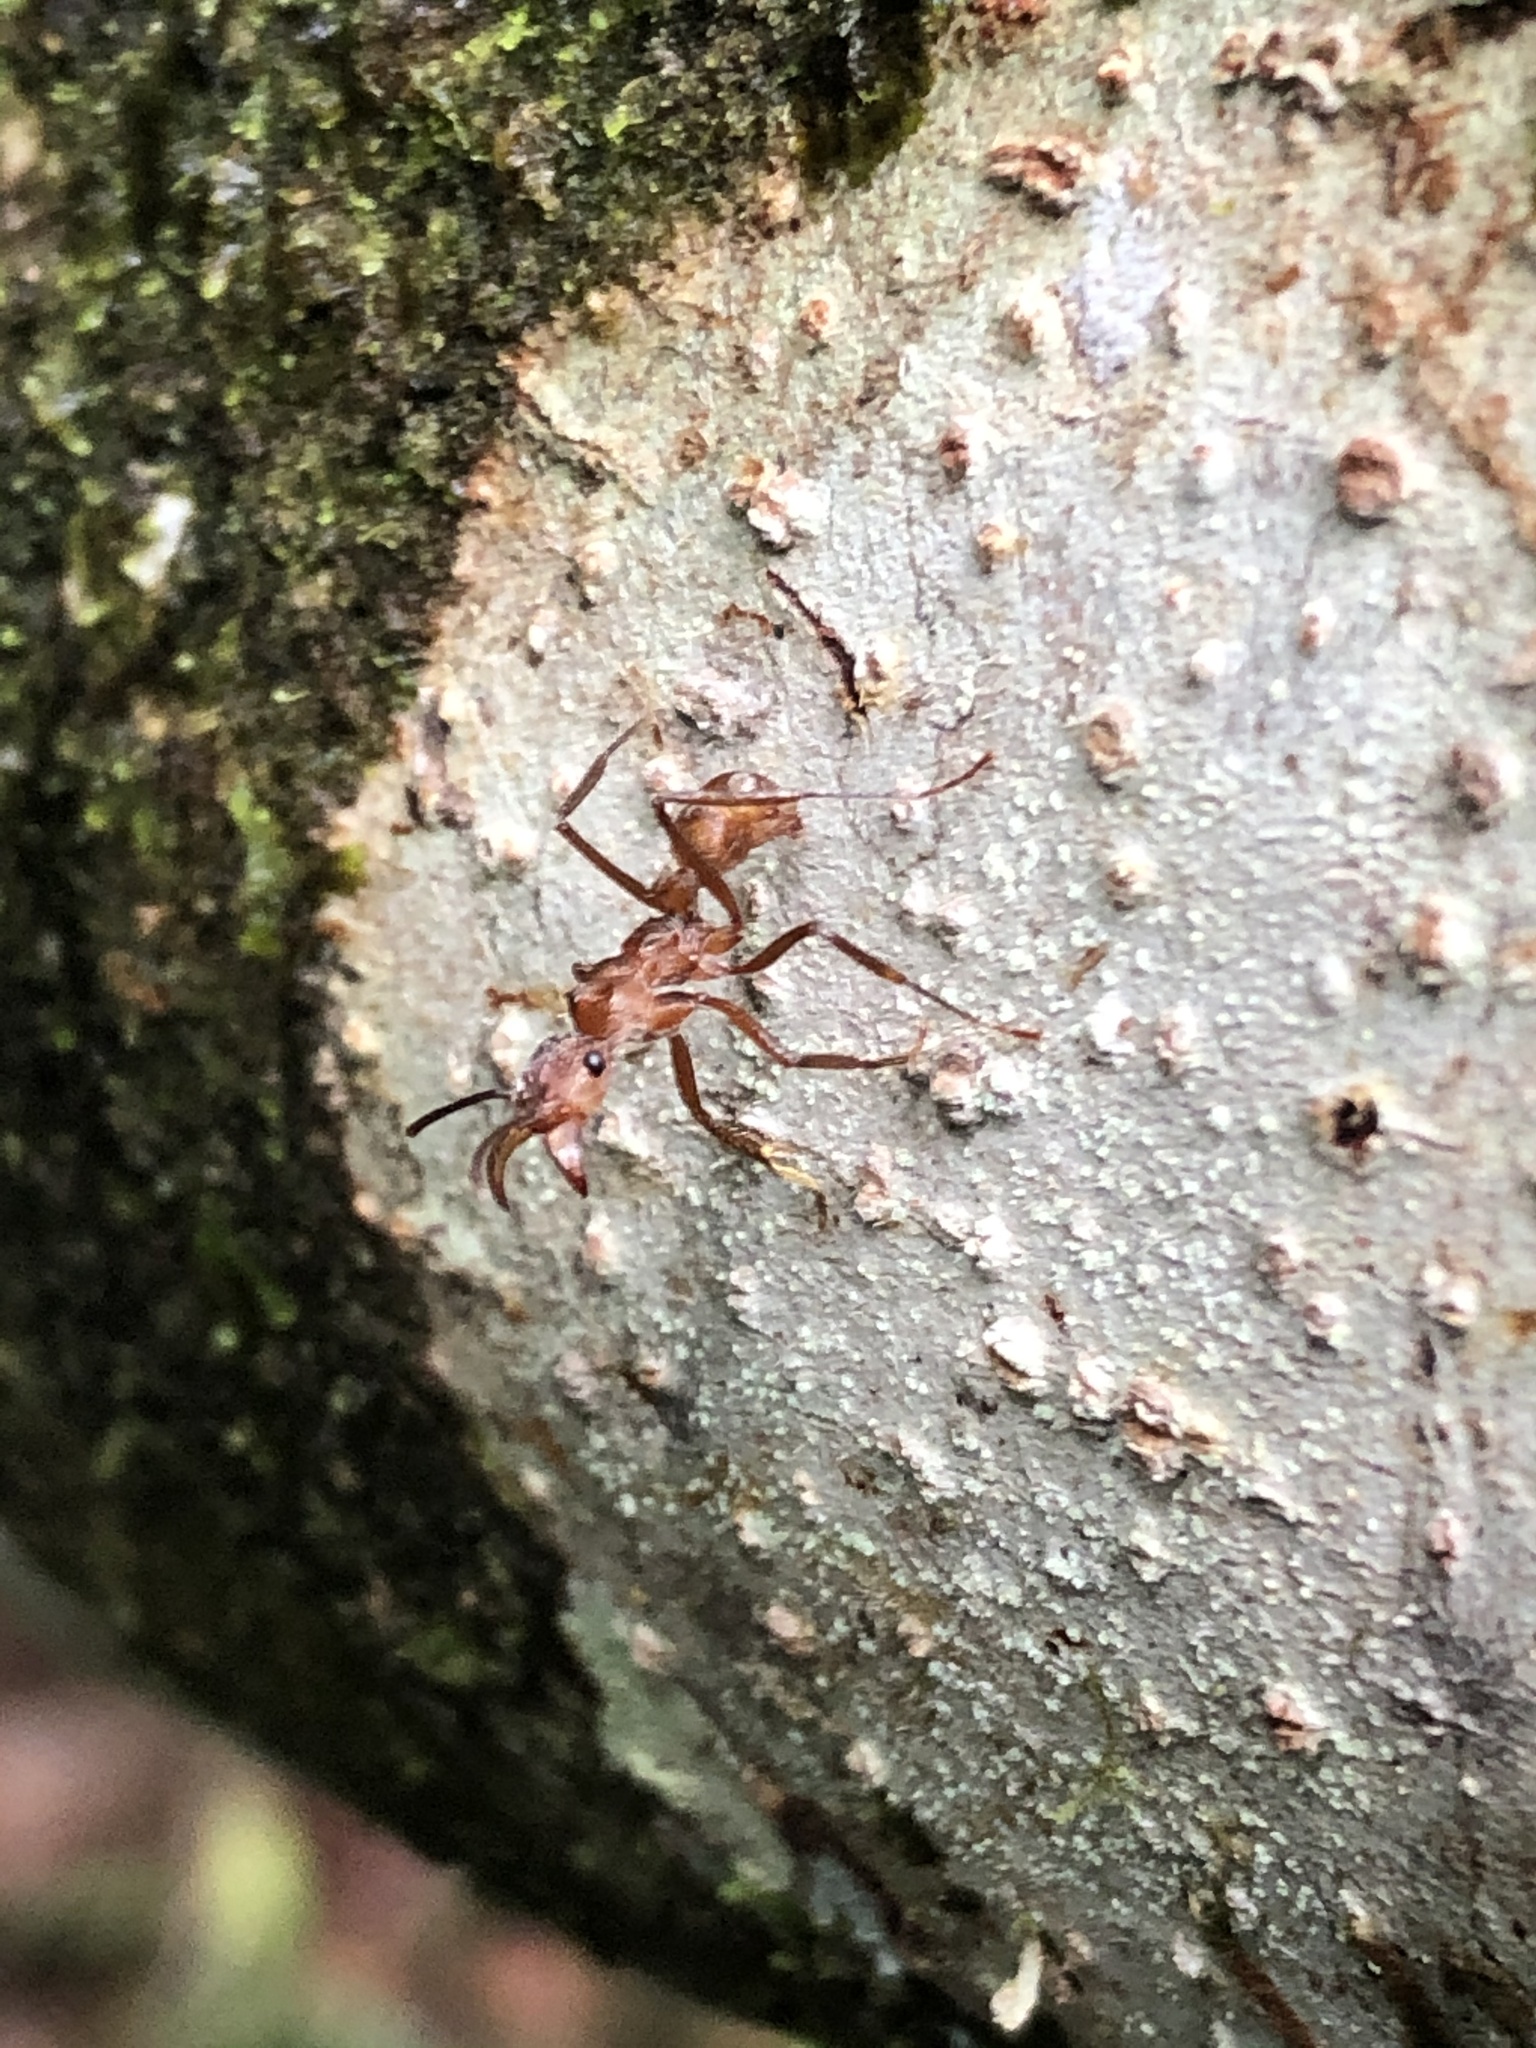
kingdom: Animalia
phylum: Arthropoda
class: Insecta
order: Hymenoptera
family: Formicidae
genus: Ectatomma
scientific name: Ectatomma tuberculatum
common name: Ant
